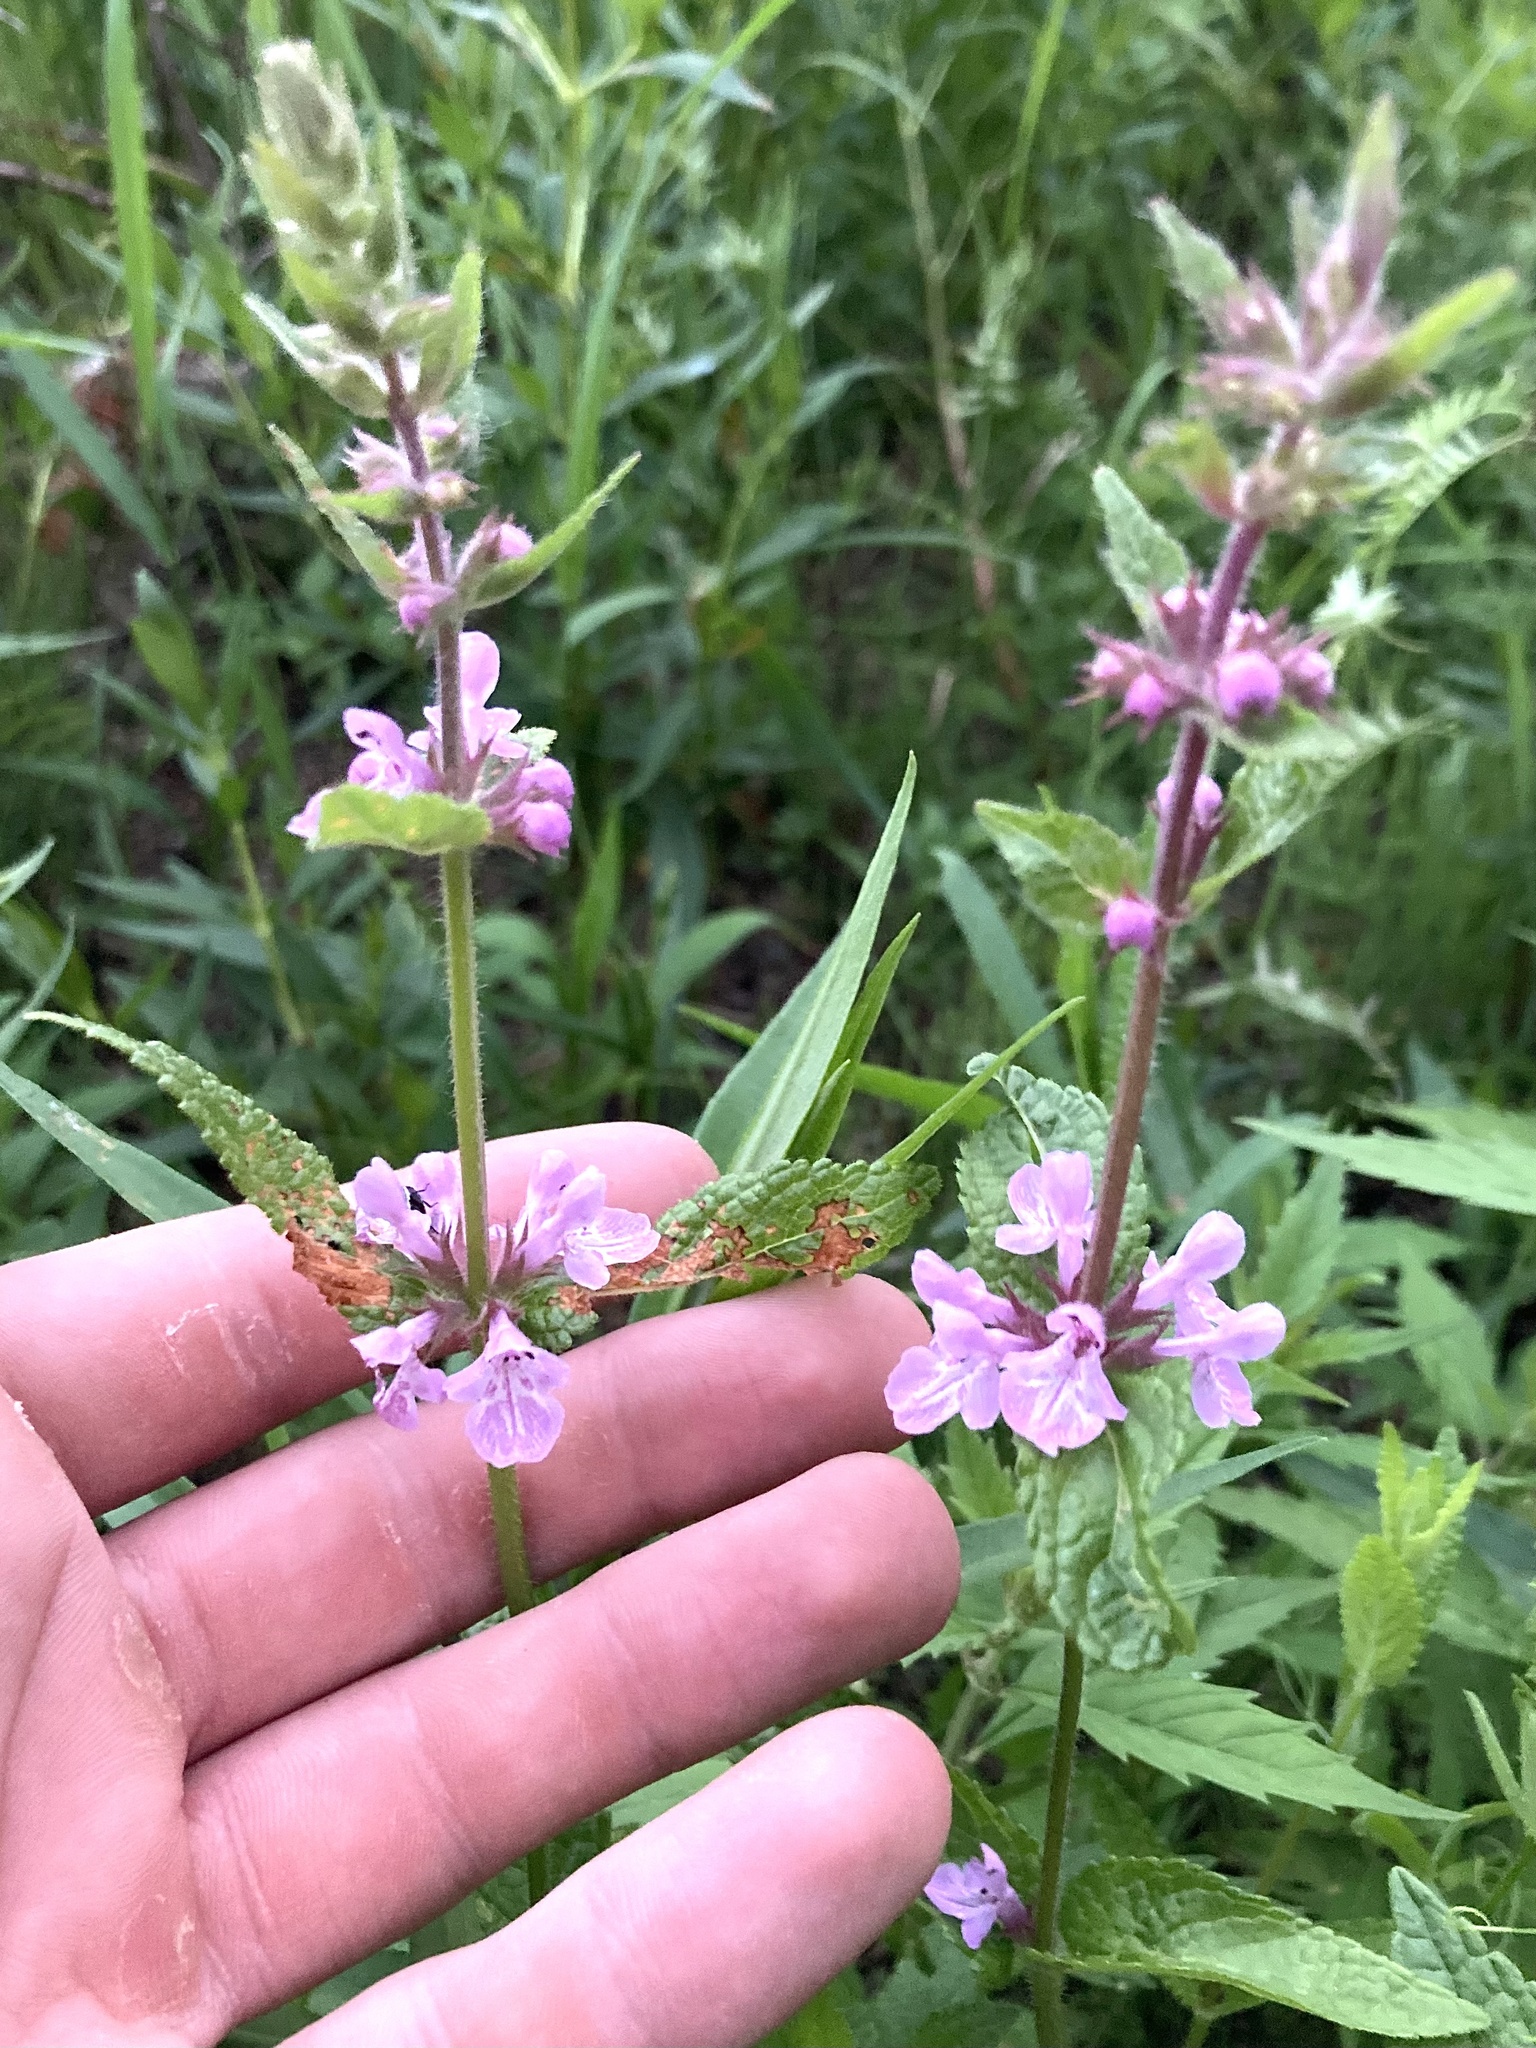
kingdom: Plantae
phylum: Tracheophyta
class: Magnoliopsida
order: Lamiales
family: Lamiaceae
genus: Stachys
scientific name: Stachys pilosa
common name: Hairy hedge-nettle
